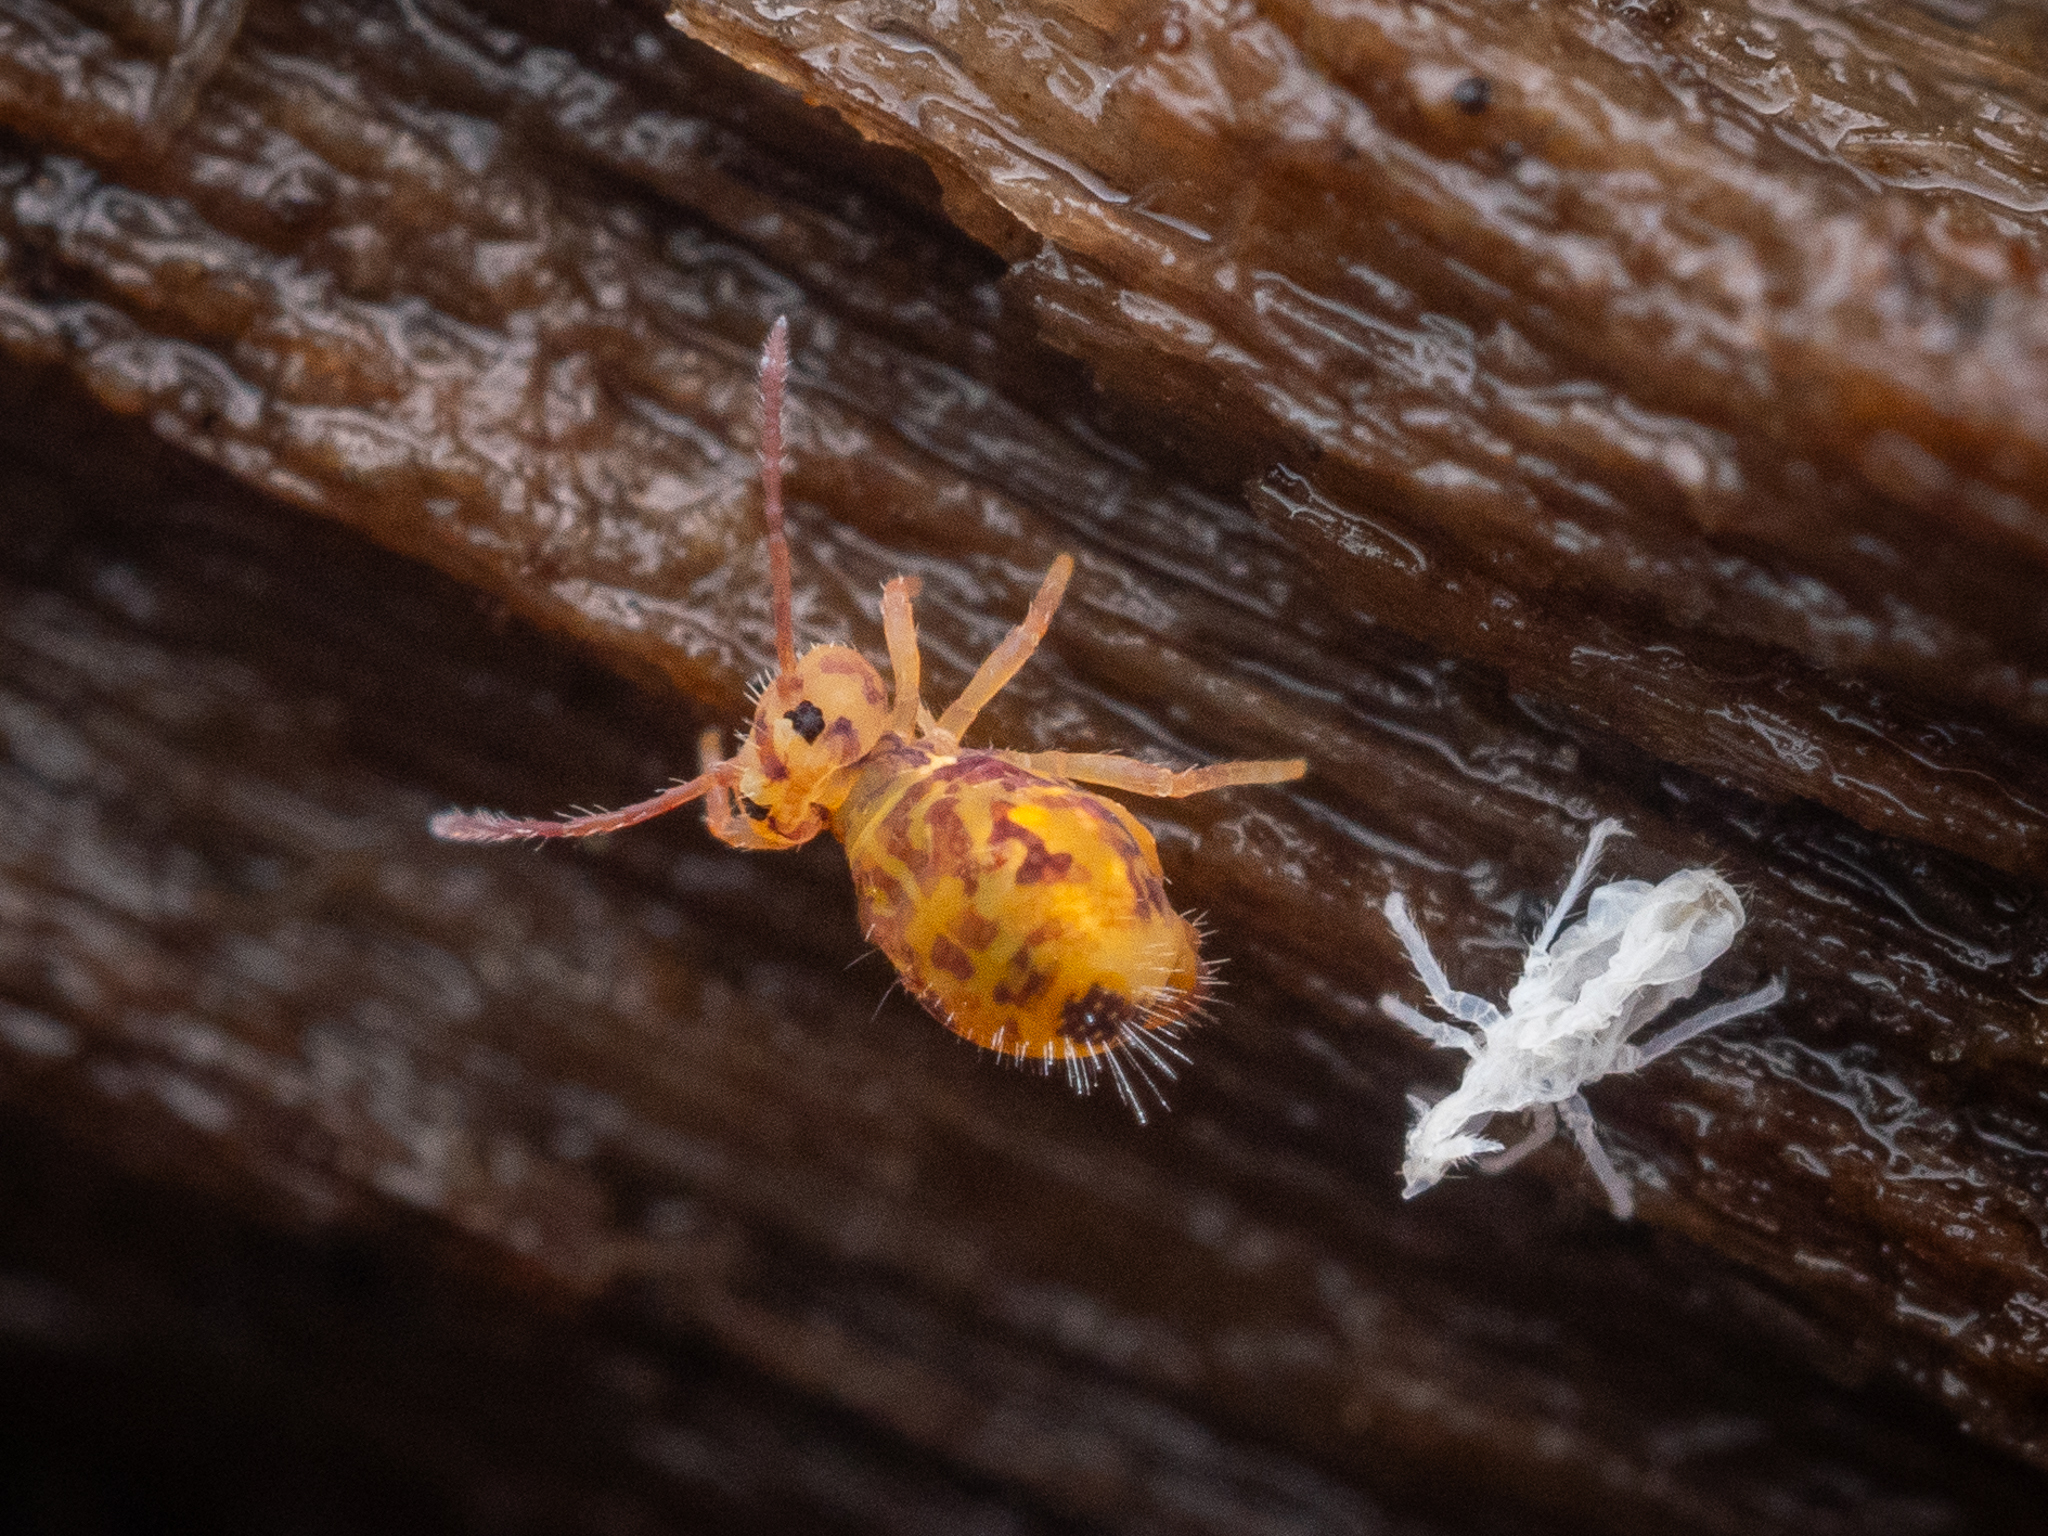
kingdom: Animalia
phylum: Arthropoda
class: Collembola
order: Symphypleona
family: Dicyrtomidae
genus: Dicyrtomina
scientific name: Dicyrtomina ornata
